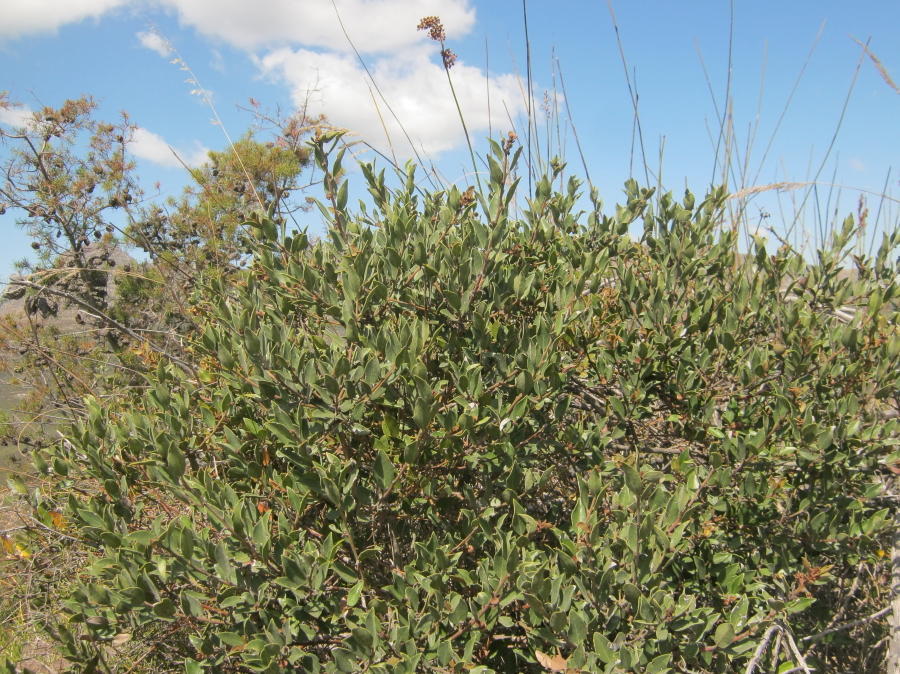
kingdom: Plantae
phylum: Tracheophyta
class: Magnoliopsida
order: Ericales
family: Ebenaceae
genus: Euclea
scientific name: Euclea polyandra
